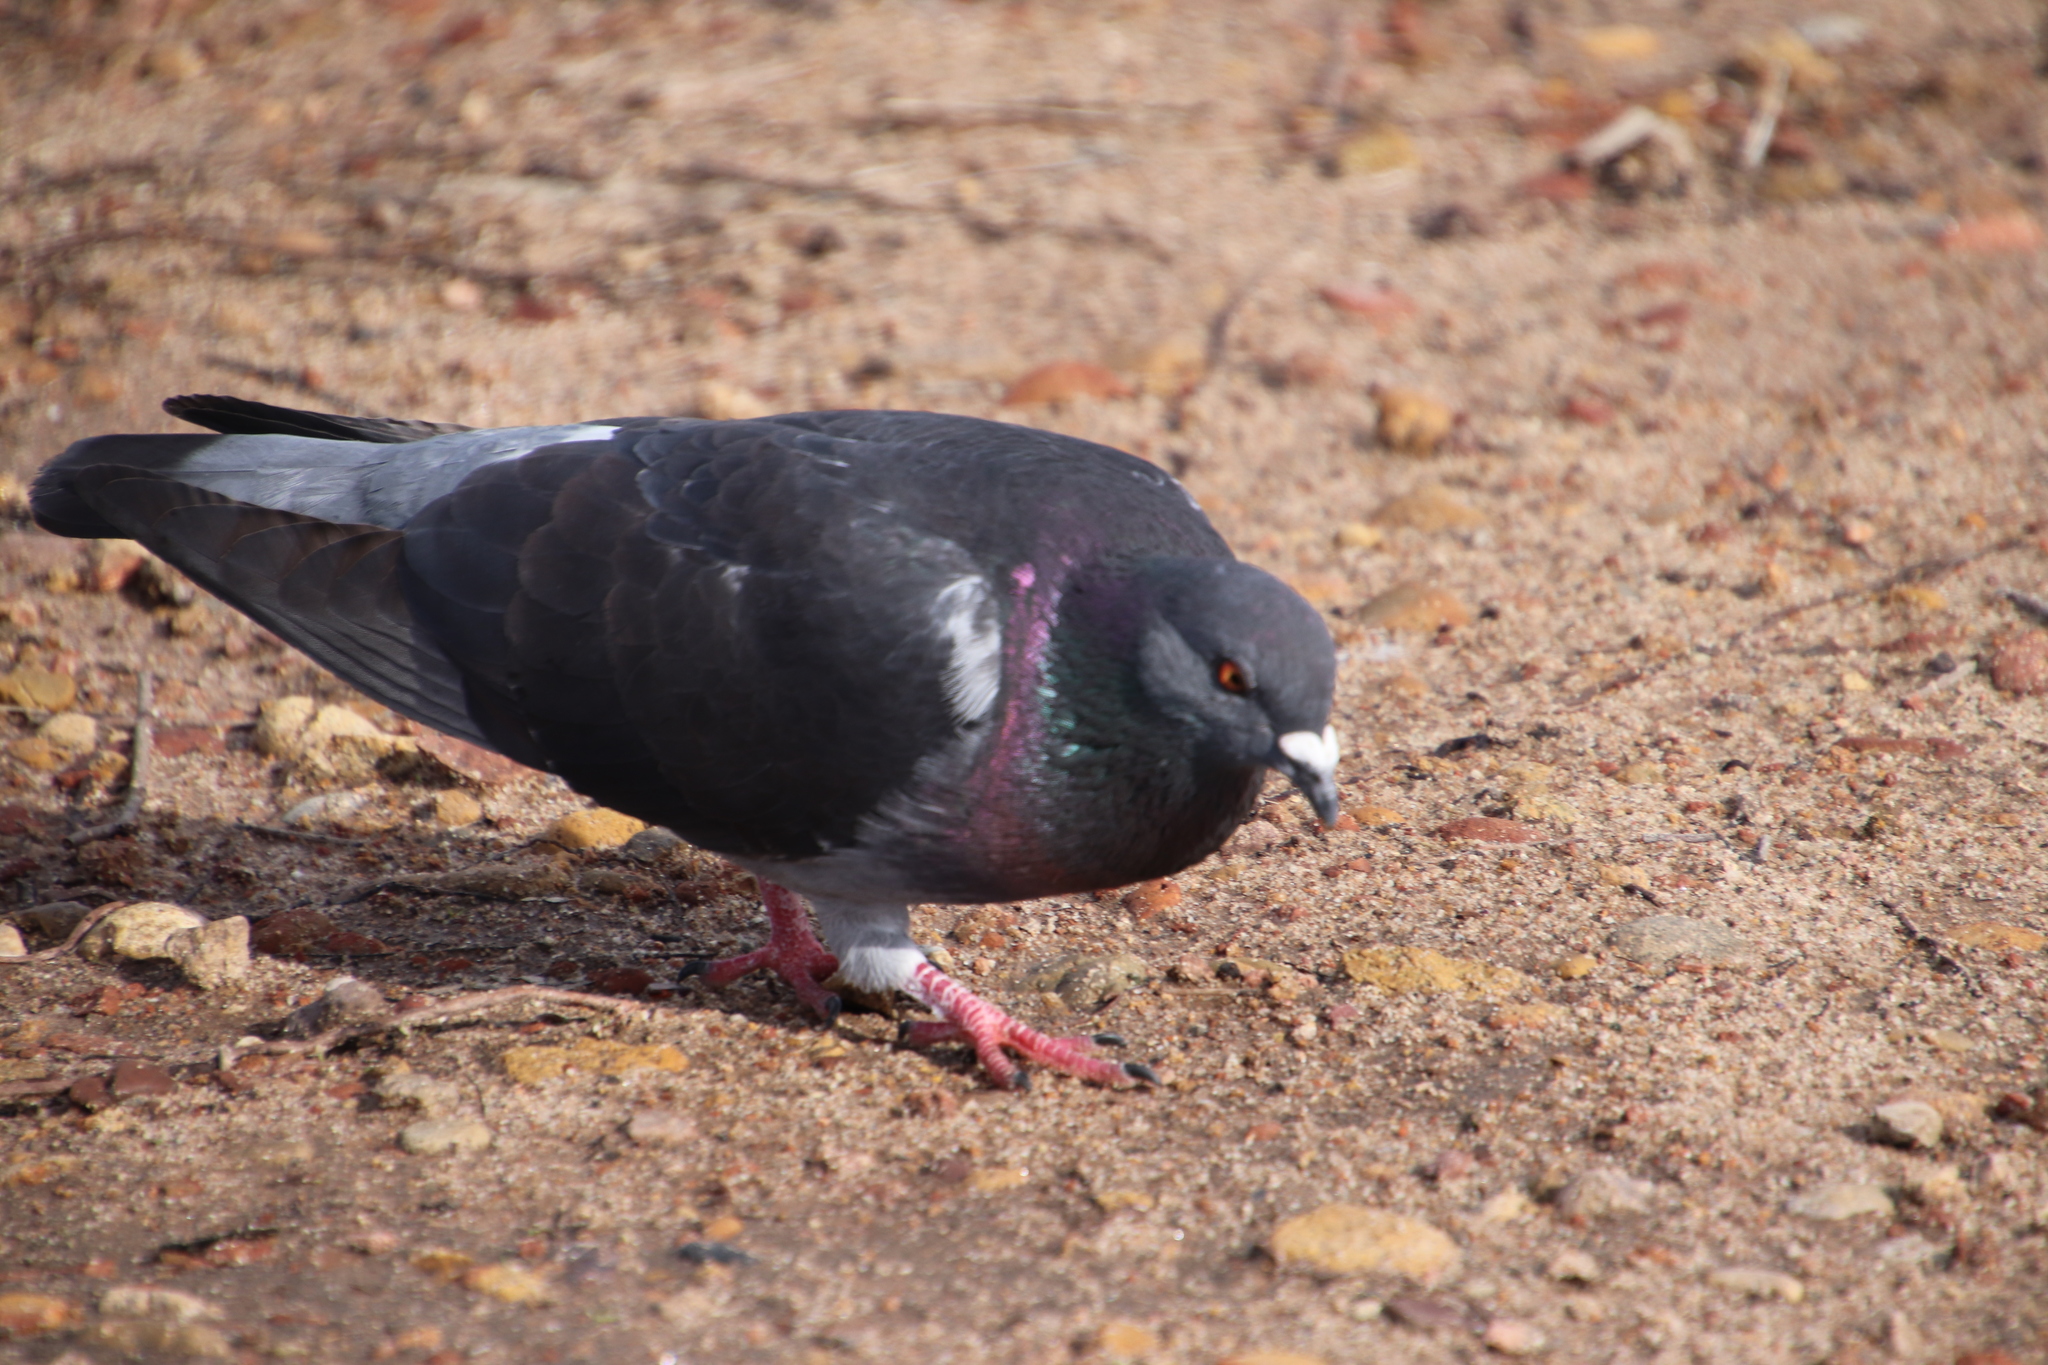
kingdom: Animalia
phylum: Chordata
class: Aves
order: Columbiformes
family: Columbidae
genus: Columba
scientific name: Columba livia
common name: Rock pigeon
